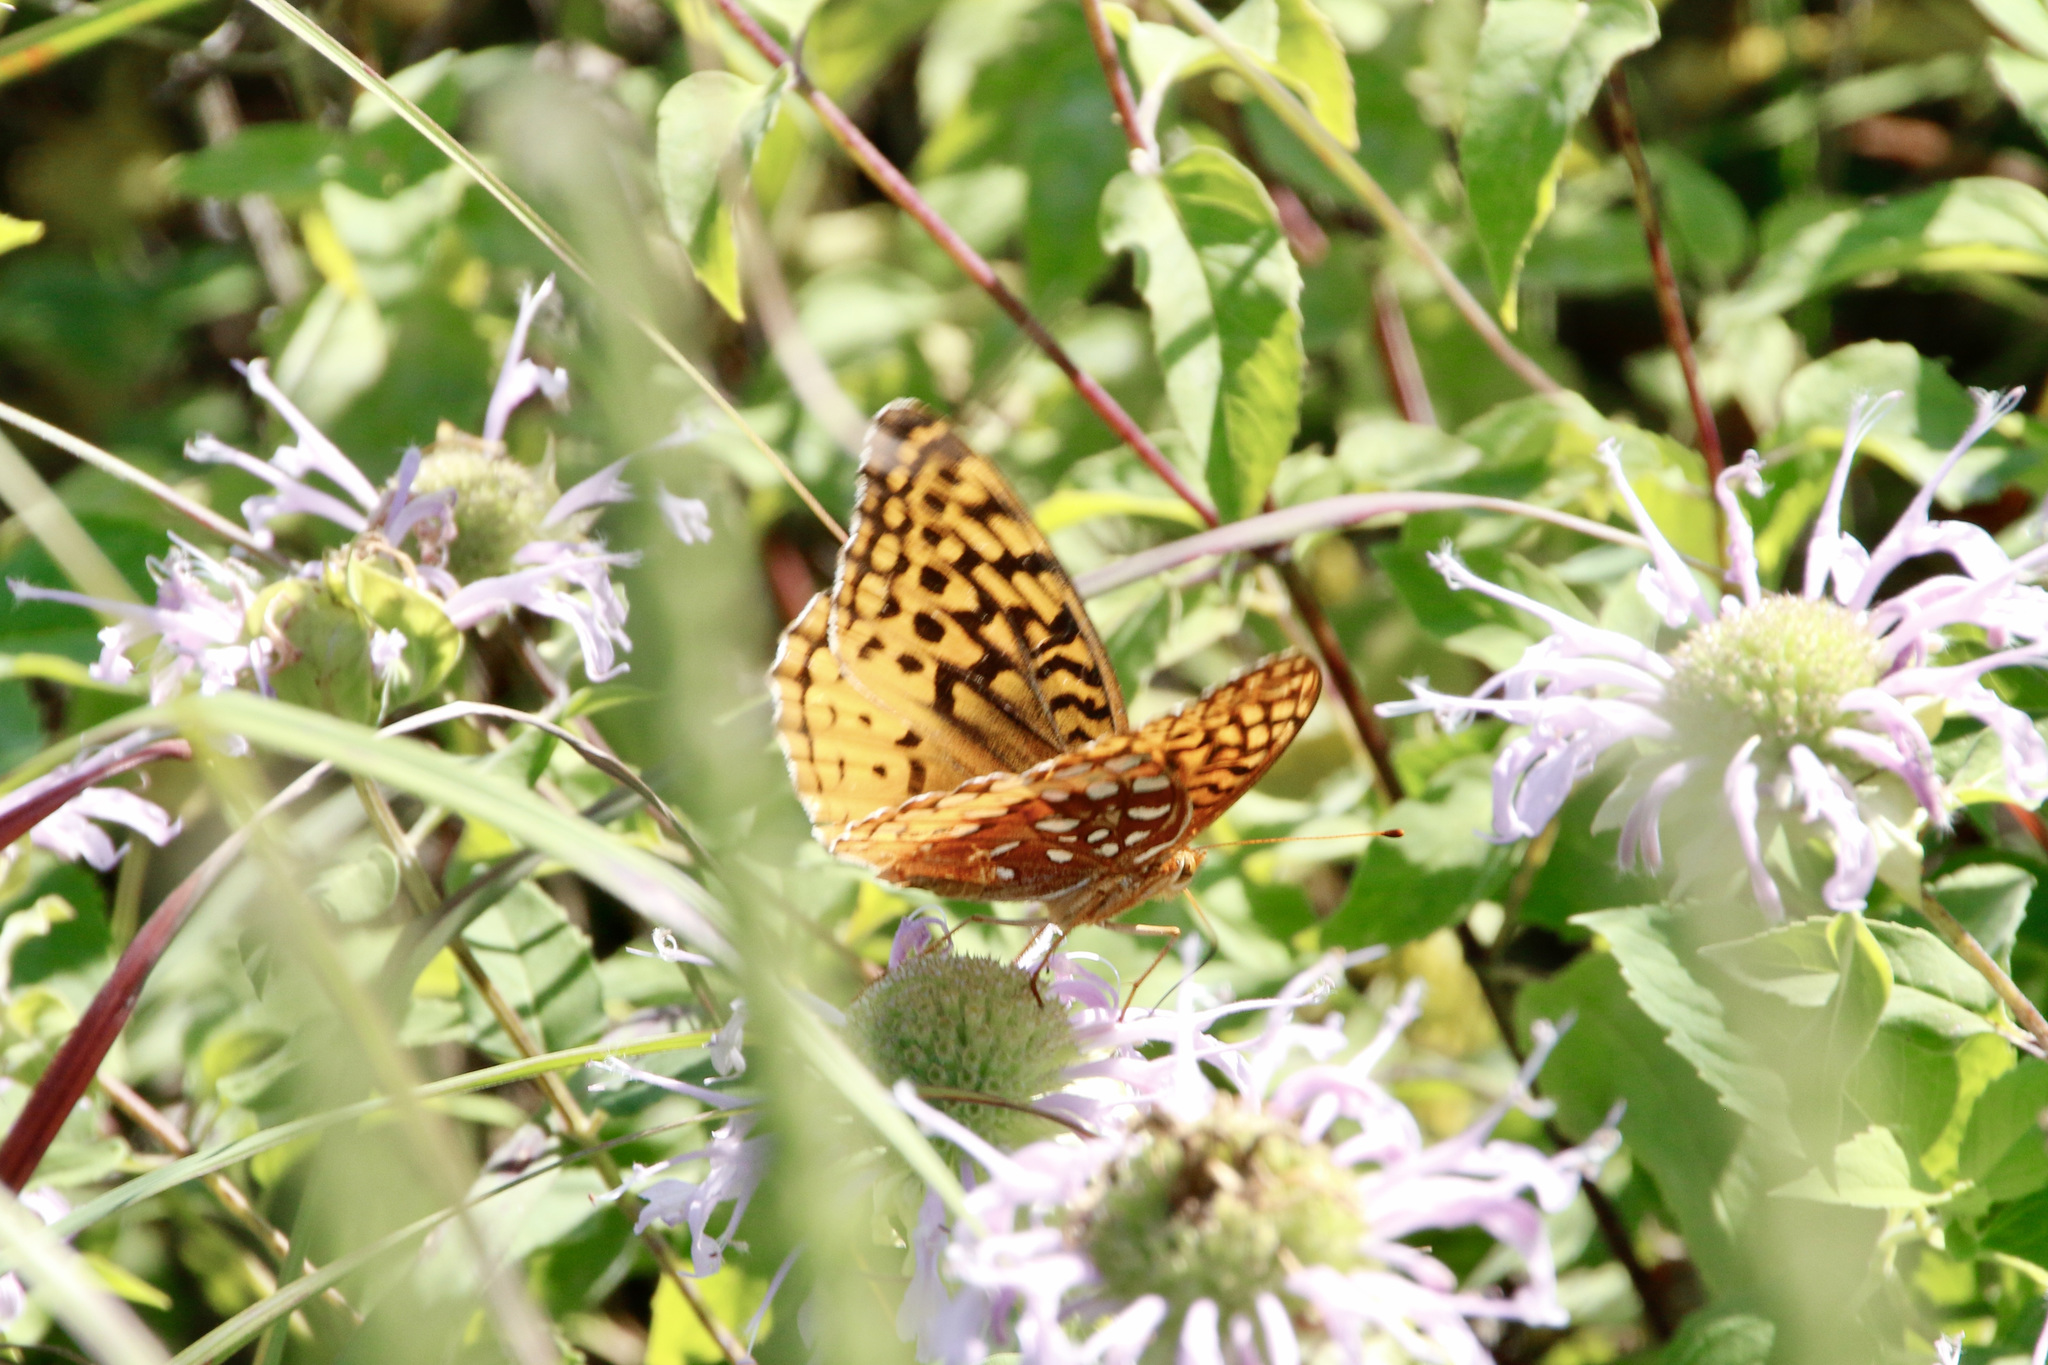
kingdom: Animalia
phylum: Arthropoda
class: Insecta
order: Lepidoptera
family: Nymphalidae
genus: Speyeria
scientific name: Speyeria cybele
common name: Great spangled fritillary
